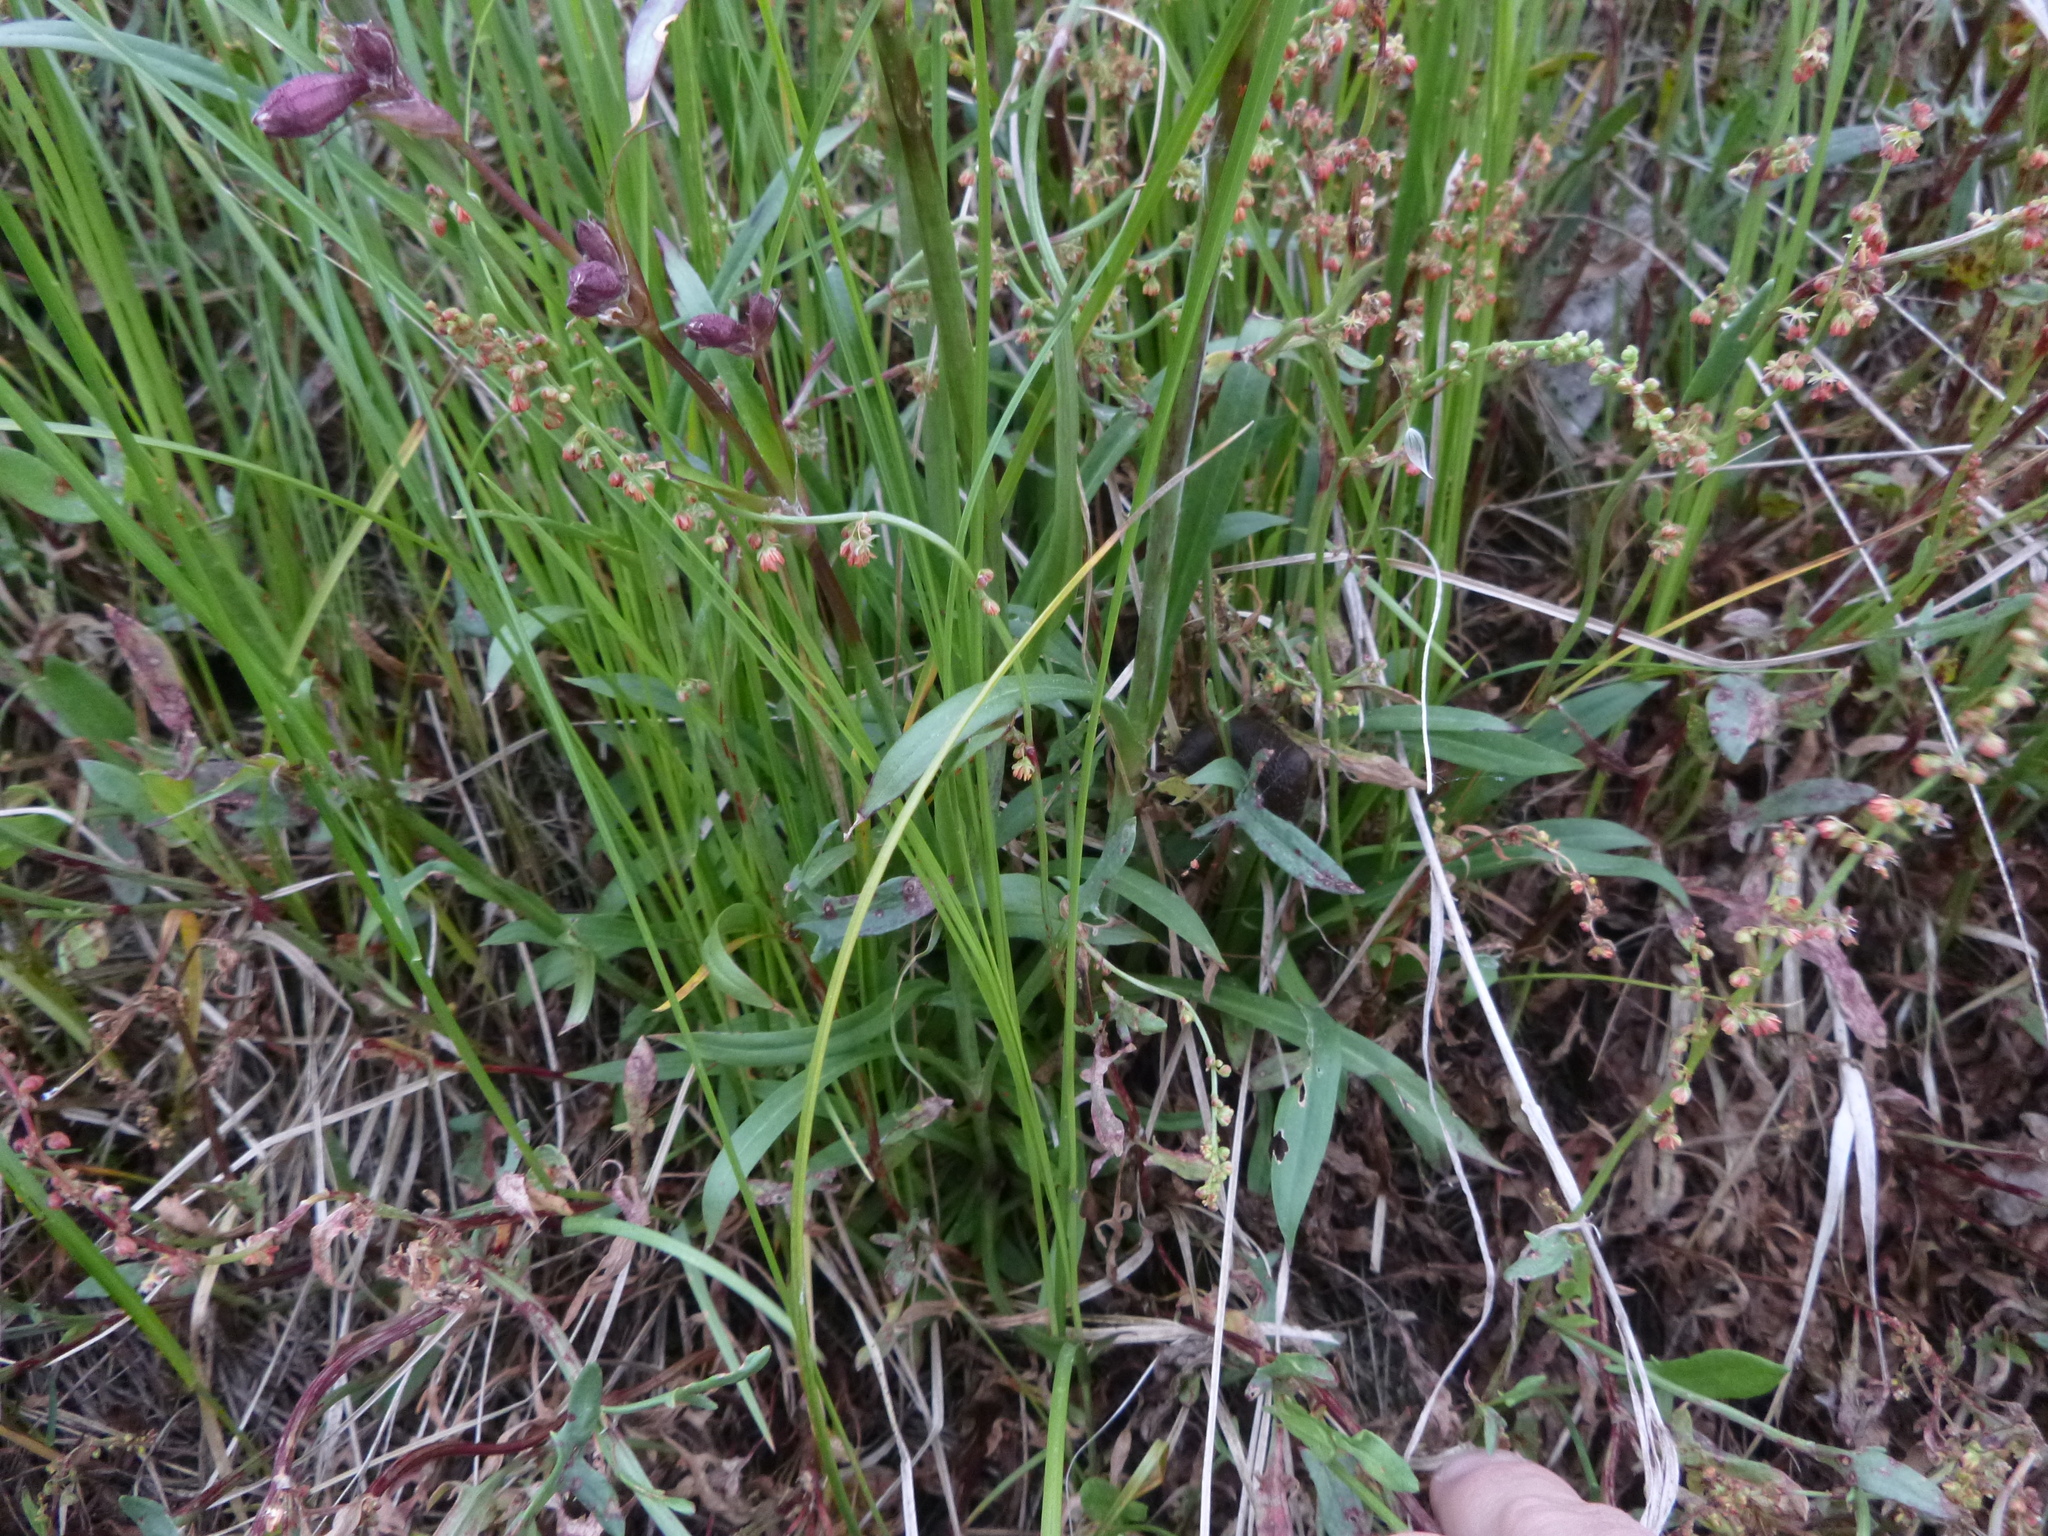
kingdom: Plantae
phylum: Tracheophyta
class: Magnoliopsida
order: Caryophyllales
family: Caryophyllaceae
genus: Viscaria
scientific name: Viscaria vulgaris
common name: Clammy campion
